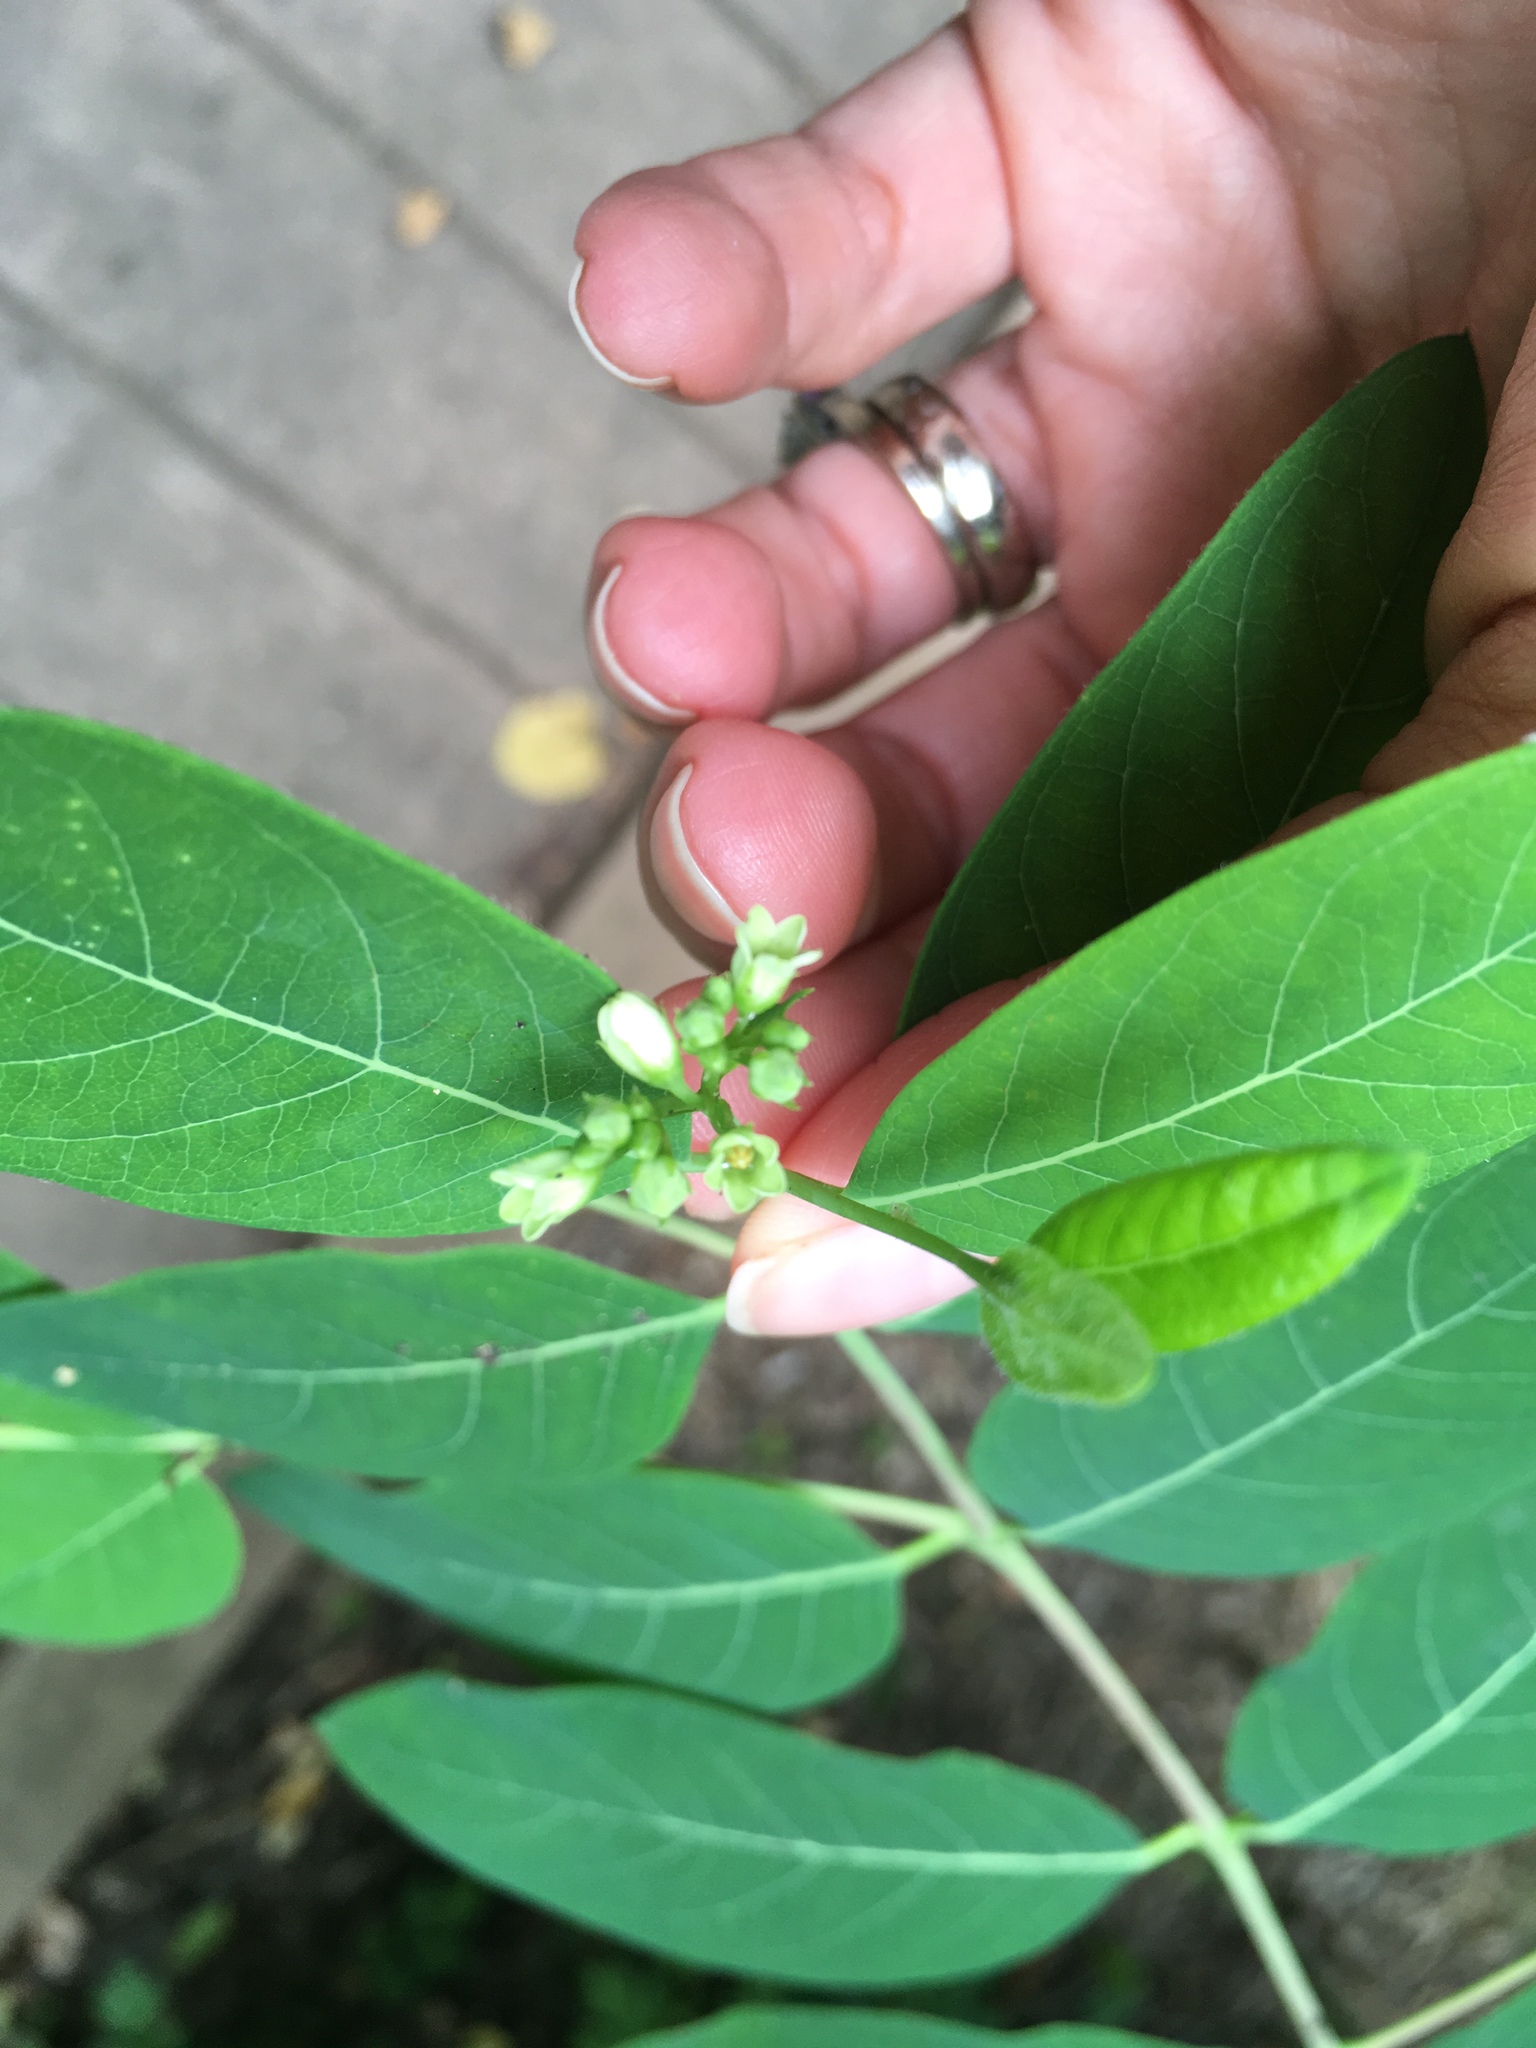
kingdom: Plantae
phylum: Tracheophyta
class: Magnoliopsida
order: Gentianales
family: Apocynaceae
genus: Apocynum
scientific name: Apocynum cannabinum
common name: Hemp dogbane
